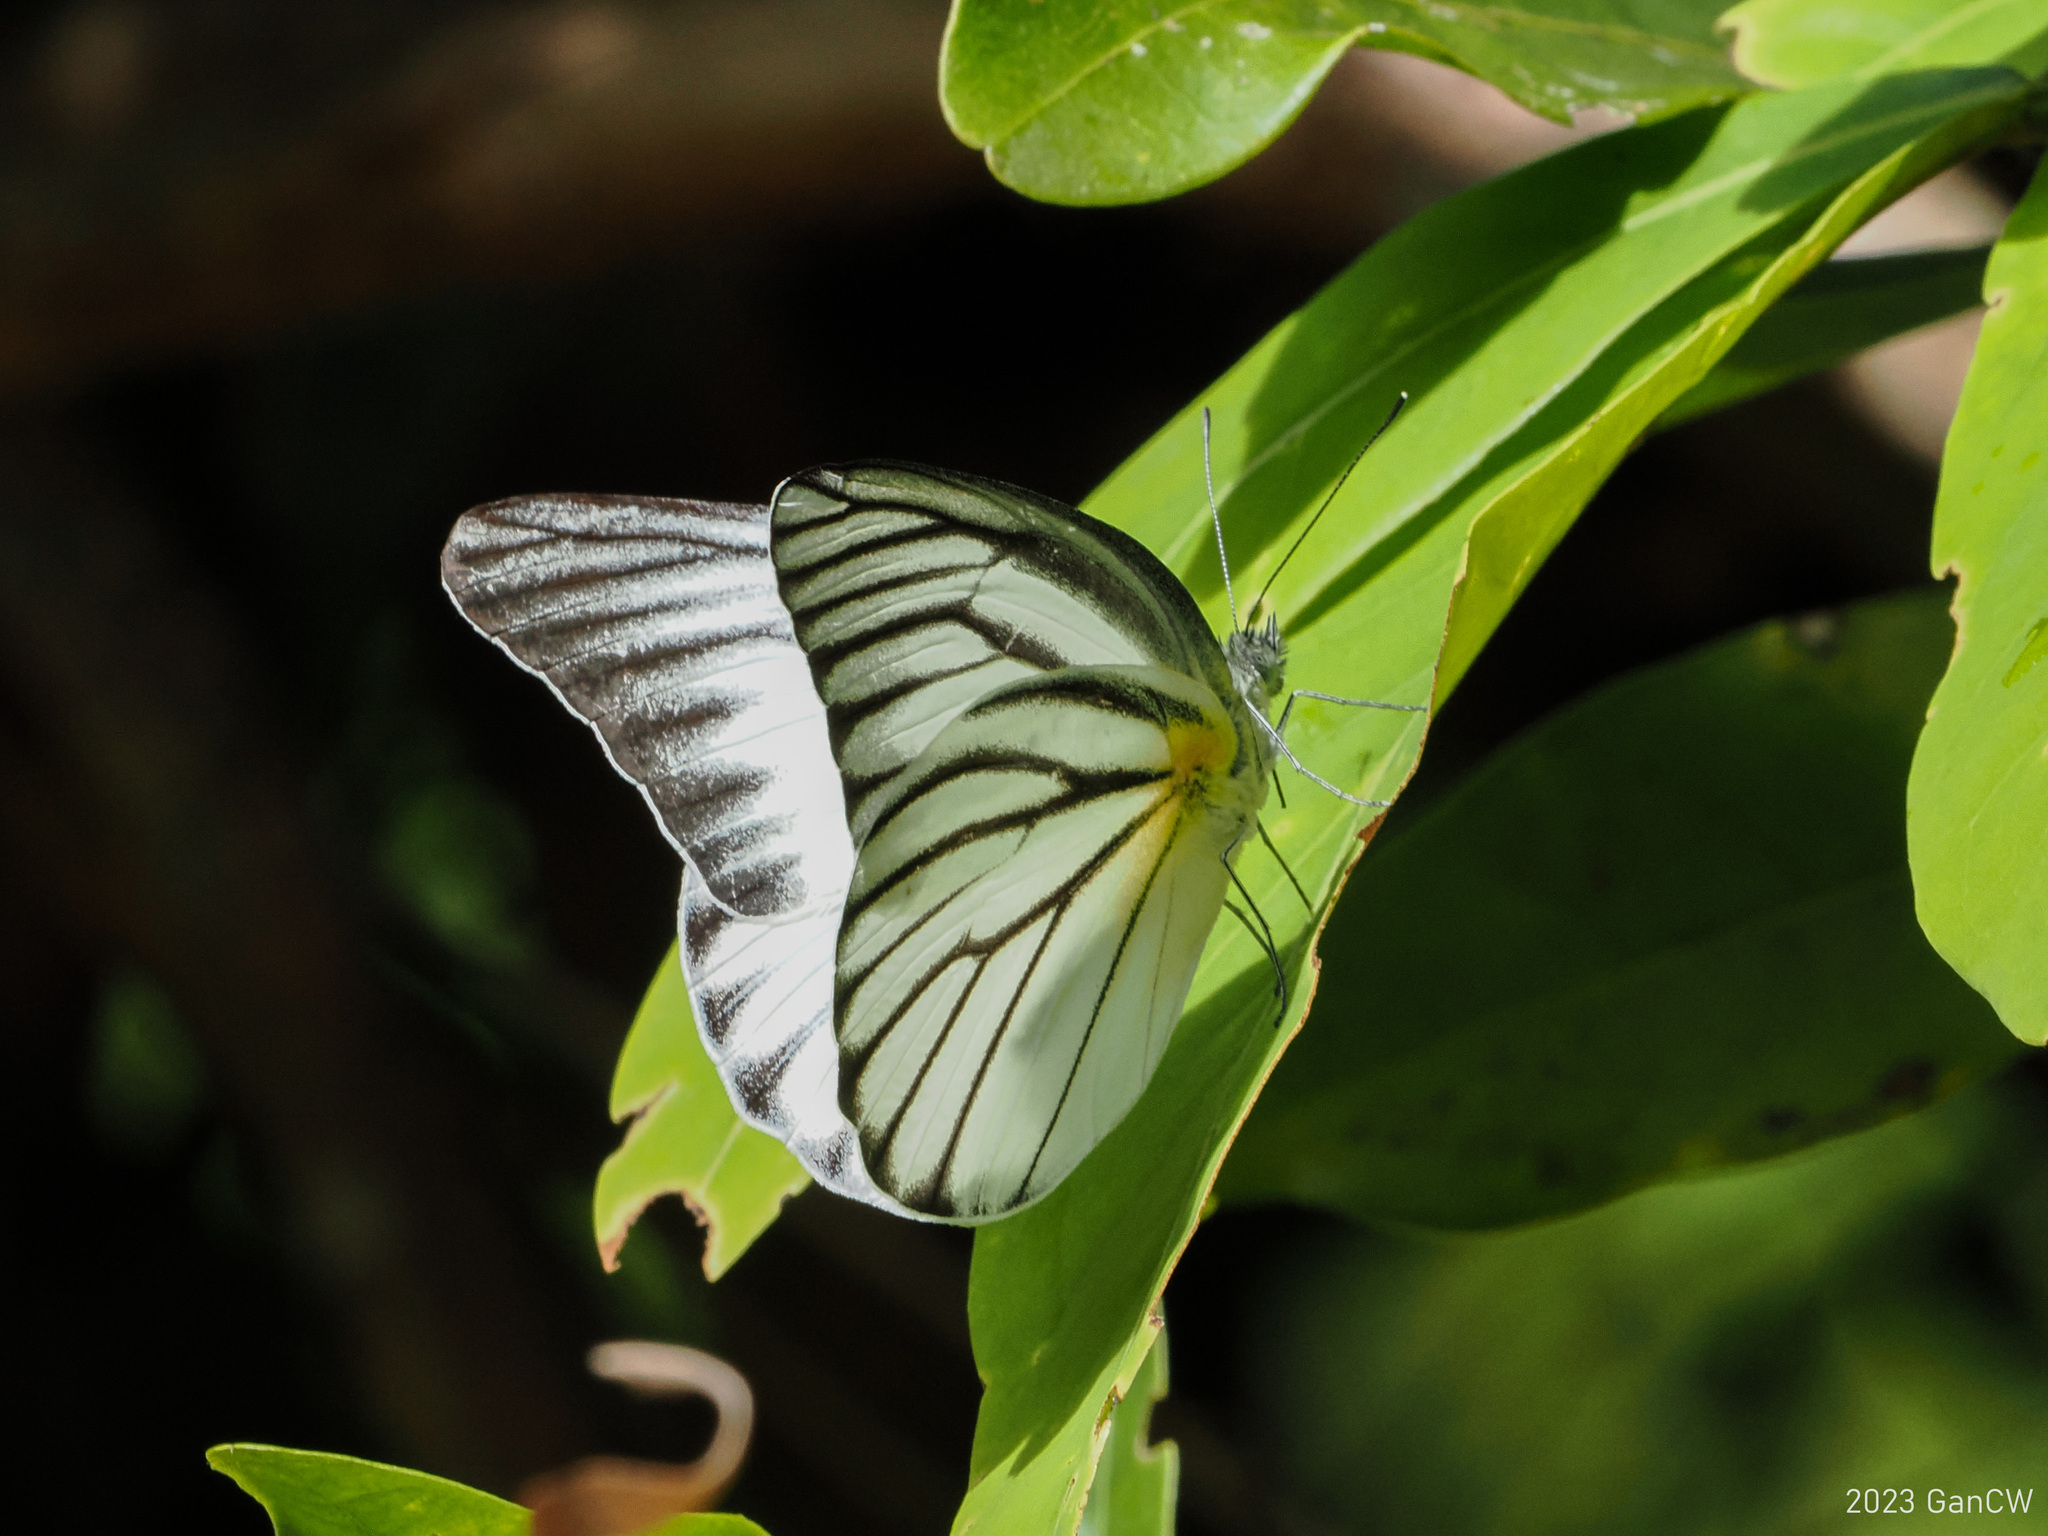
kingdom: Animalia
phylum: Arthropoda
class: Insecta
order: Lepidoptera
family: Pieridae
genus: Appias
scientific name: Appias hombroni
